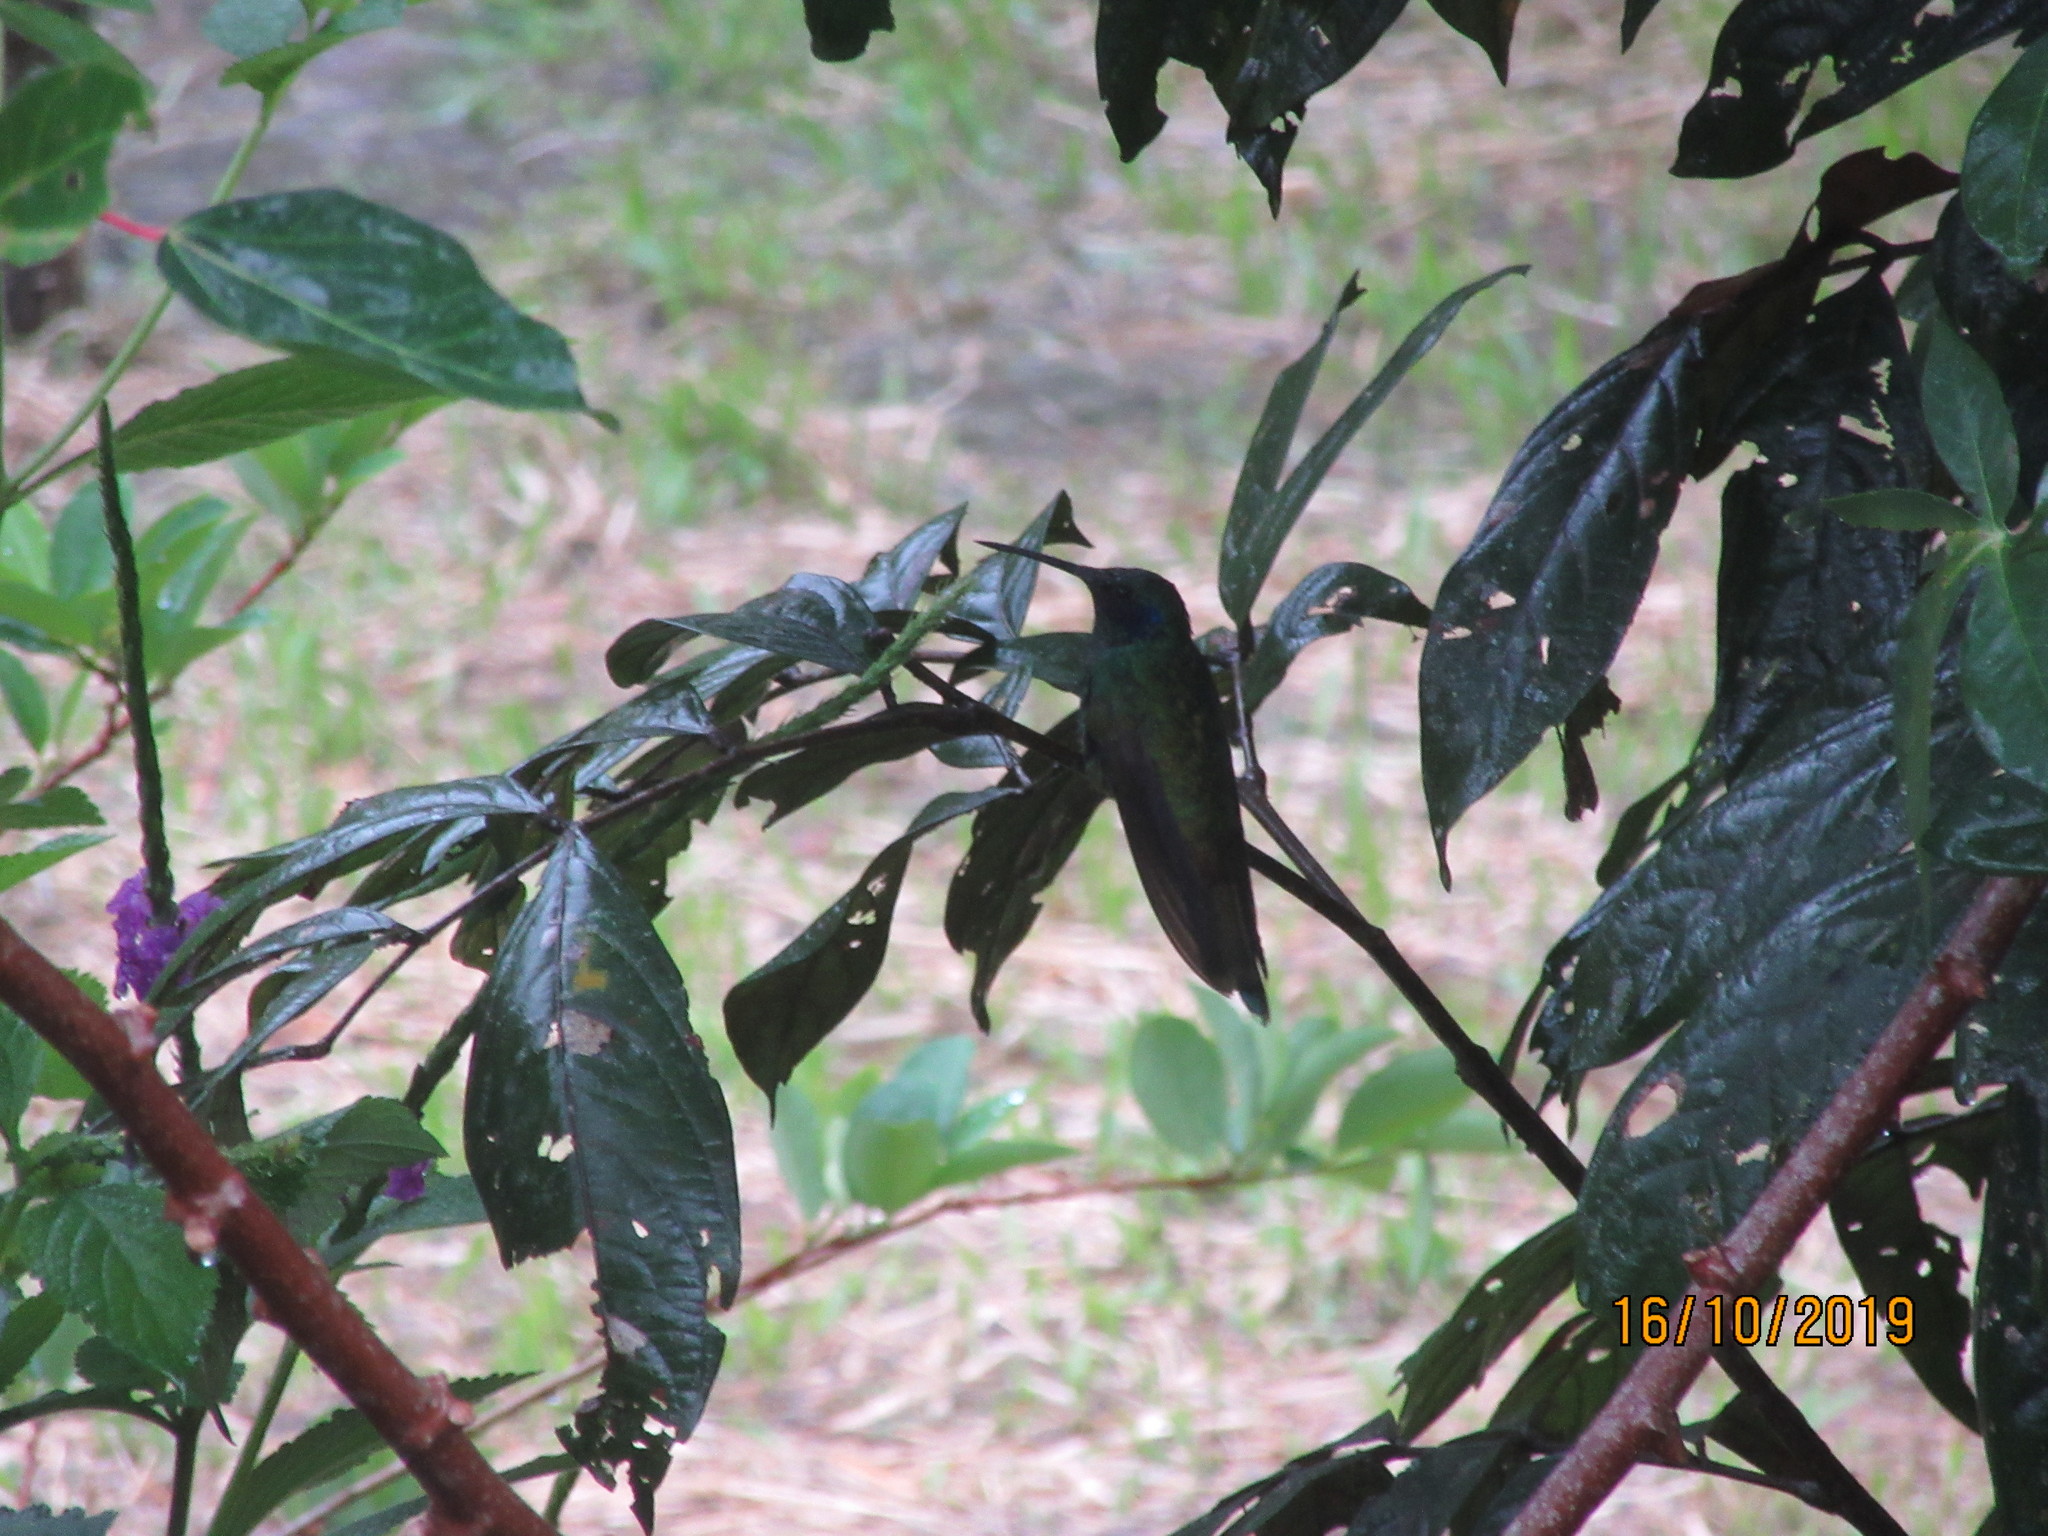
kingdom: Animalia
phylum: Chordata
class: Aves
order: Apodiformes
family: Trochilidae
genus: Colibri
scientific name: Colibri coruscans
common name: Sparkling violetear
